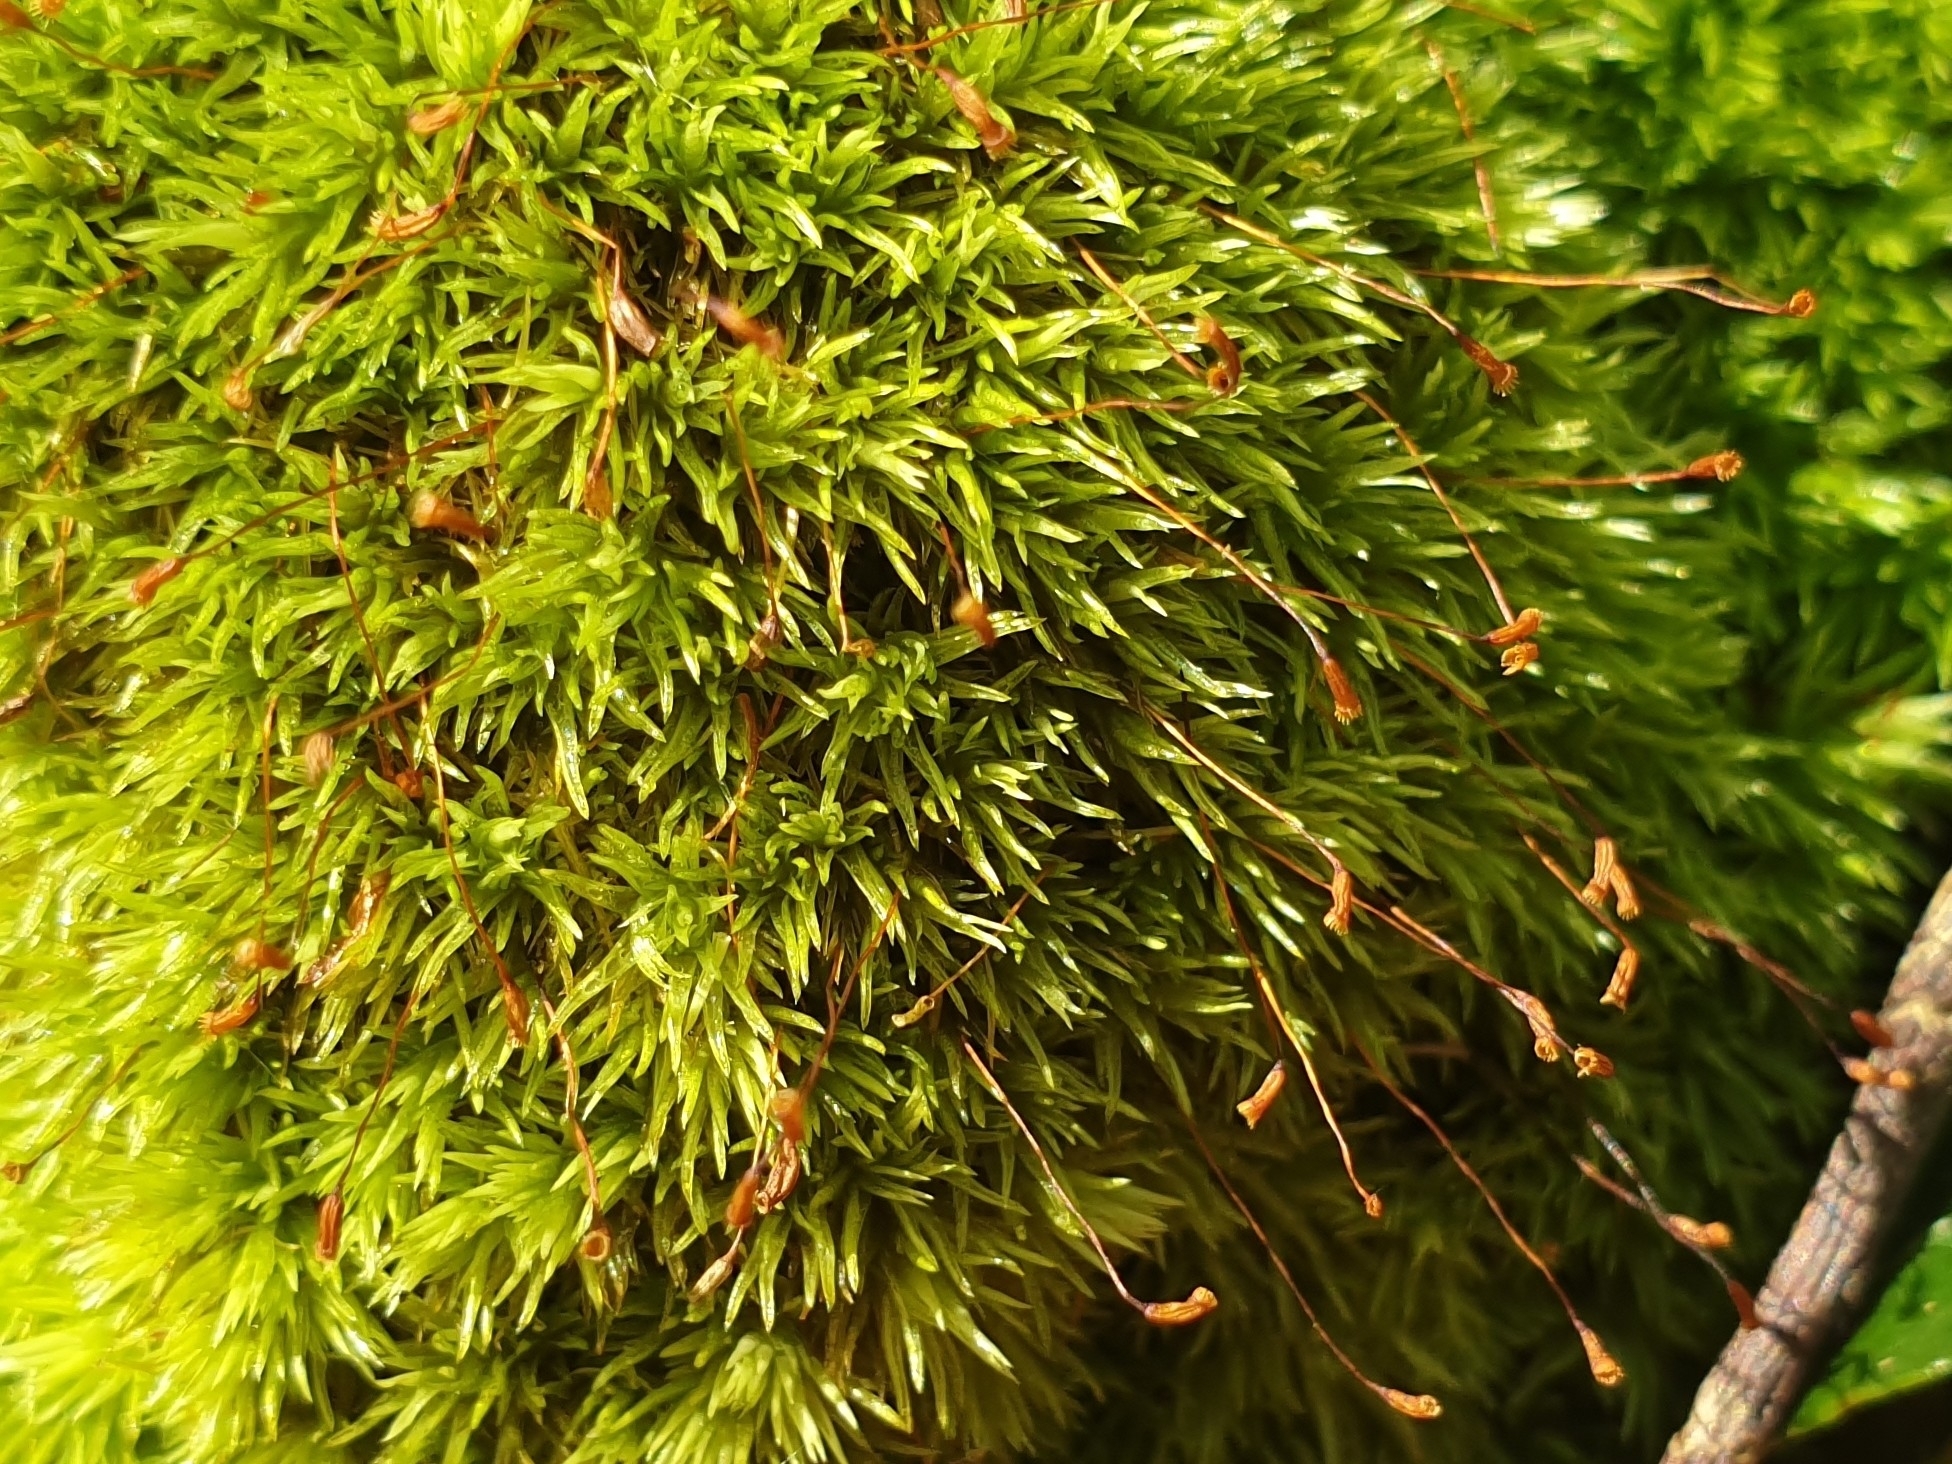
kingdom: Plantae
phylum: Bryophyta
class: Bryopsida
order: Dicranales
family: Leucobryaceae
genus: Leucobryum
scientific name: Leucobryum glaucum
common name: Large white-moss
